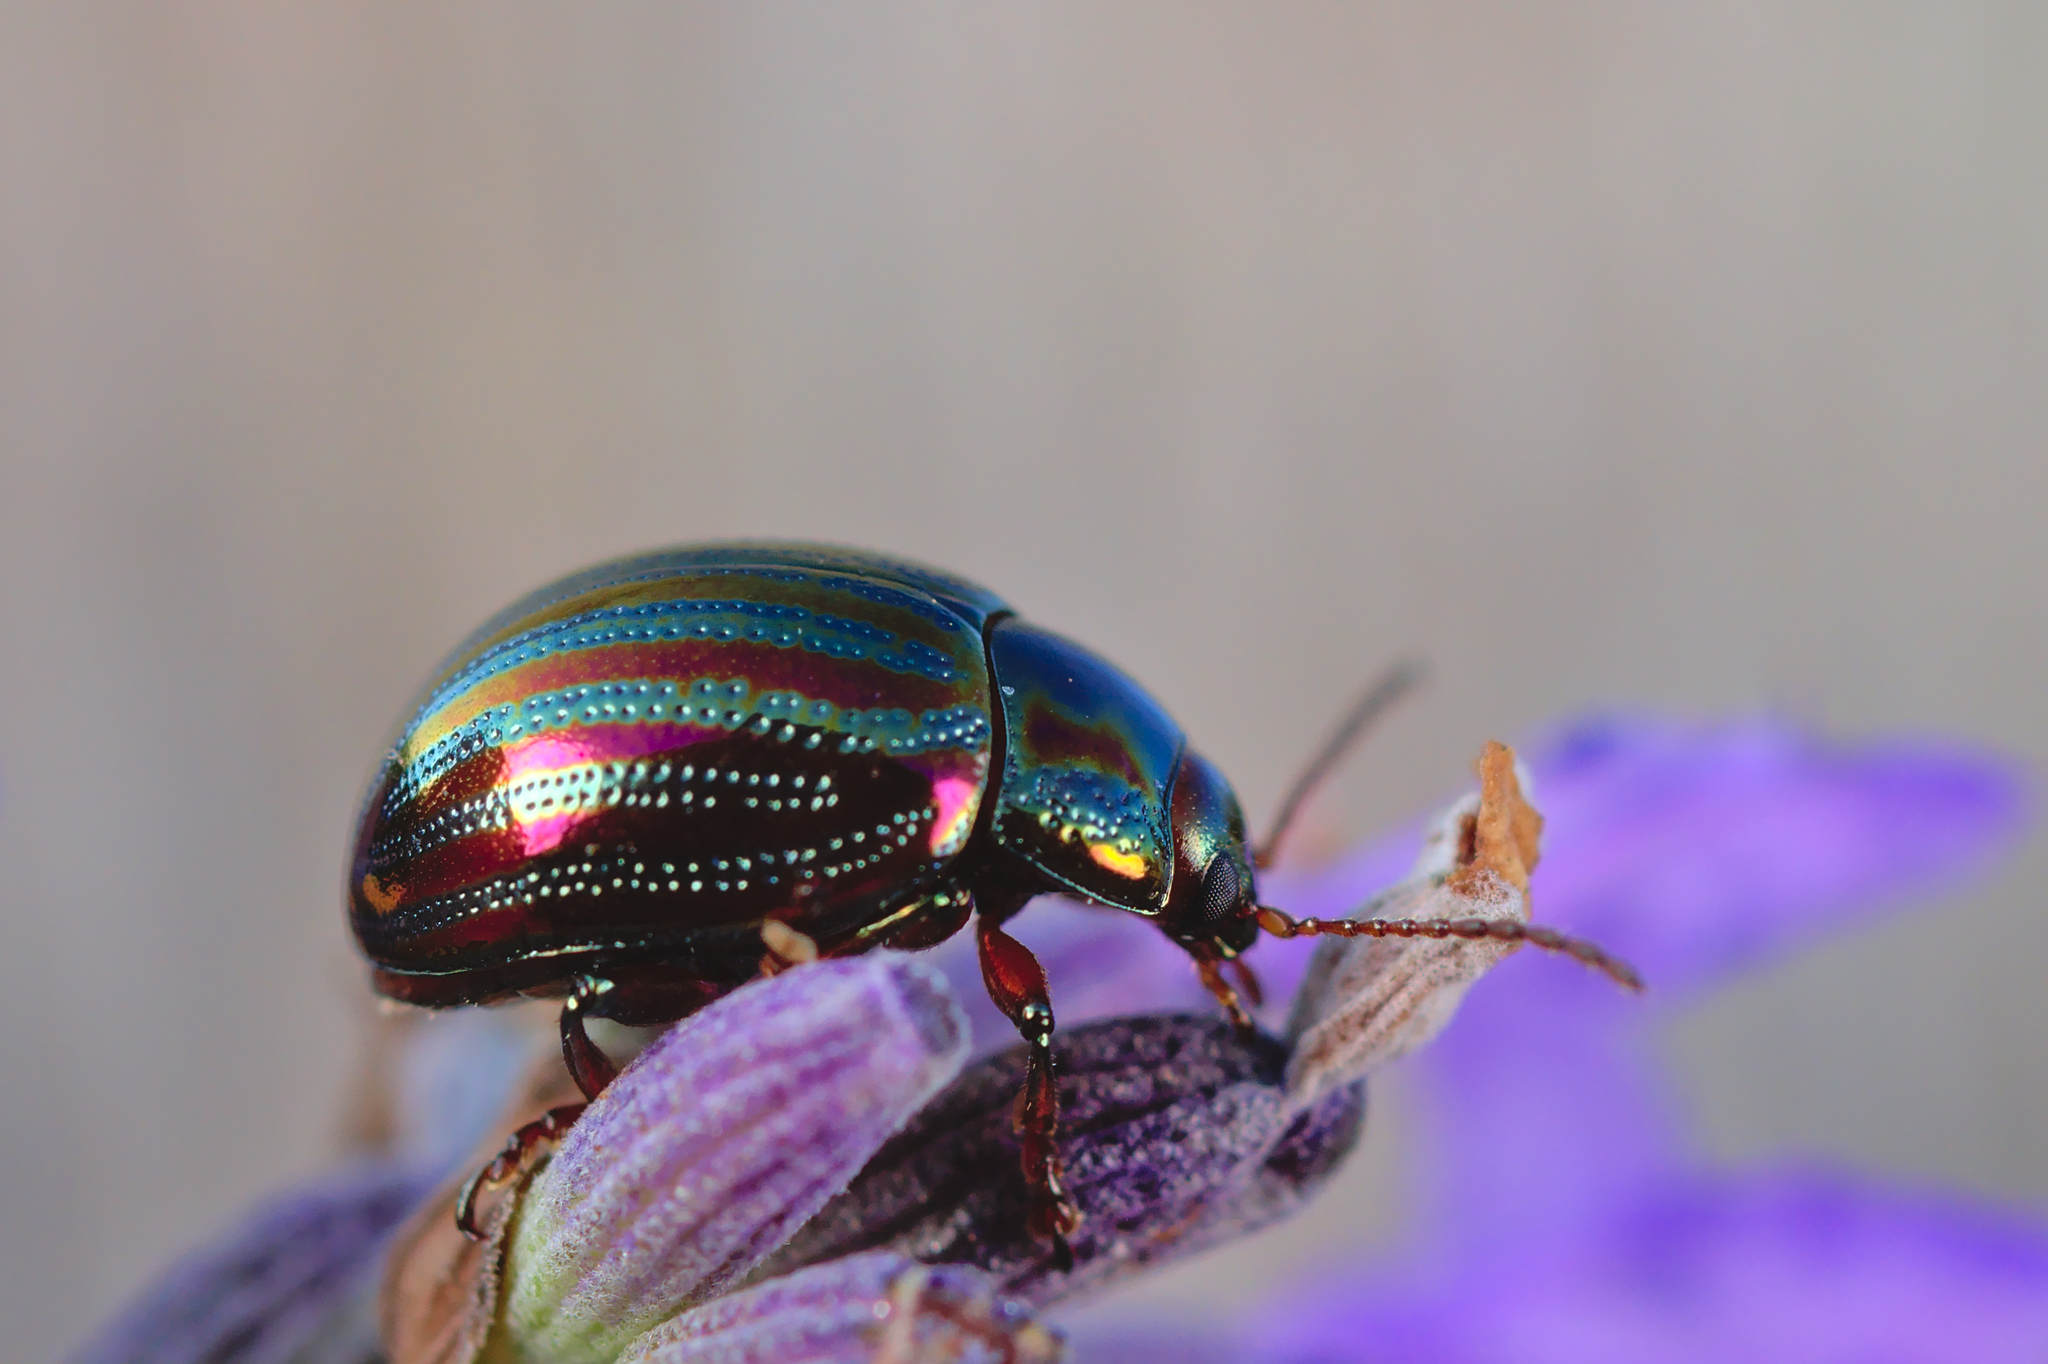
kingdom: Animalia
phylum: Arthropoda
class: Insecta
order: Coleoptera
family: Chrysomelidae
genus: Chrysolina
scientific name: Chrysolina americana
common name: Rosemary beetle
